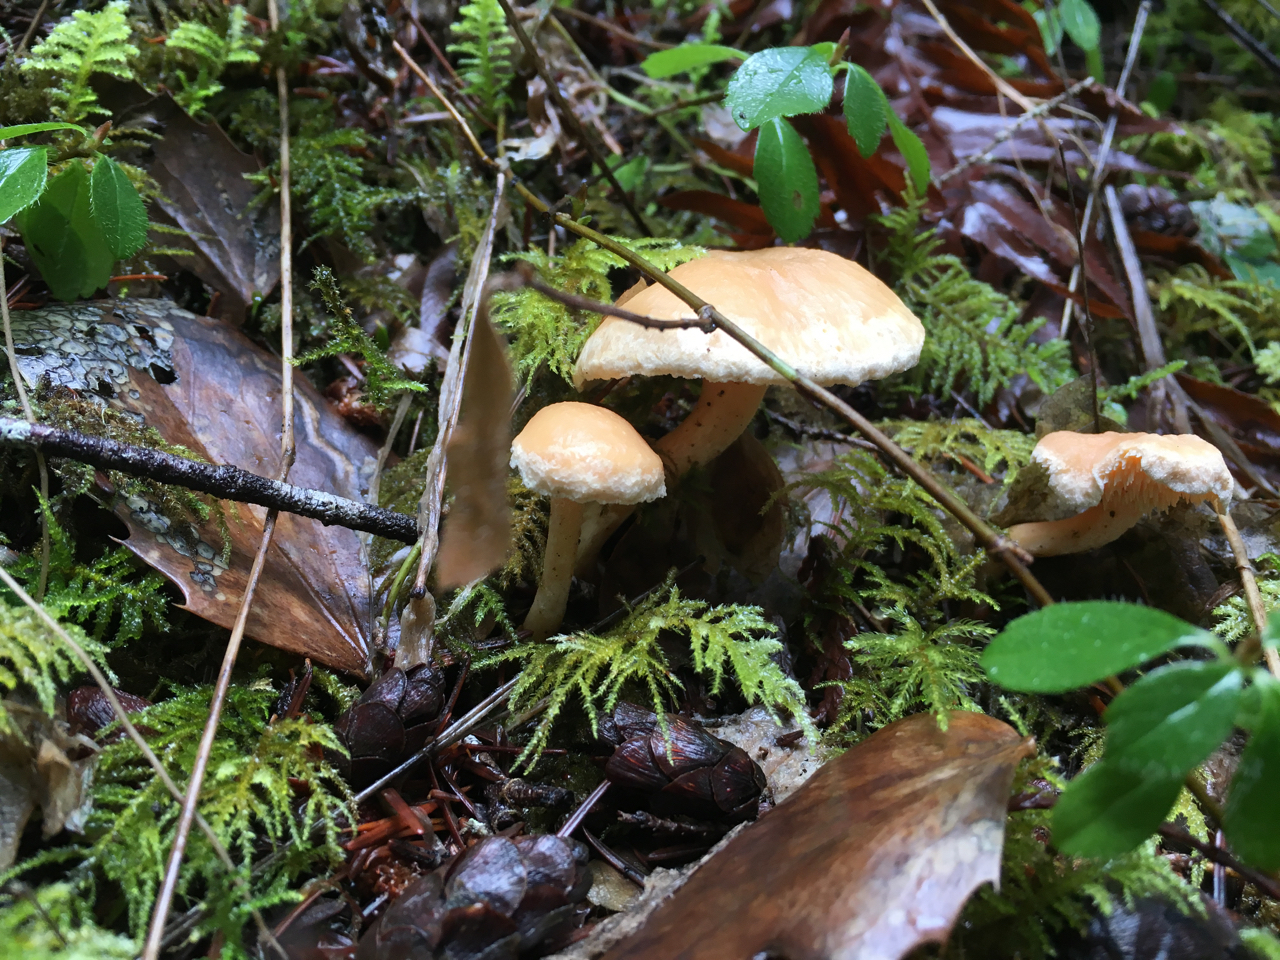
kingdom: Fungi
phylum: Basidiomycota
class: Agaricomycetes
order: Cantharellales
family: Hydnaceae
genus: Hydnum
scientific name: Hydnum oregonense
